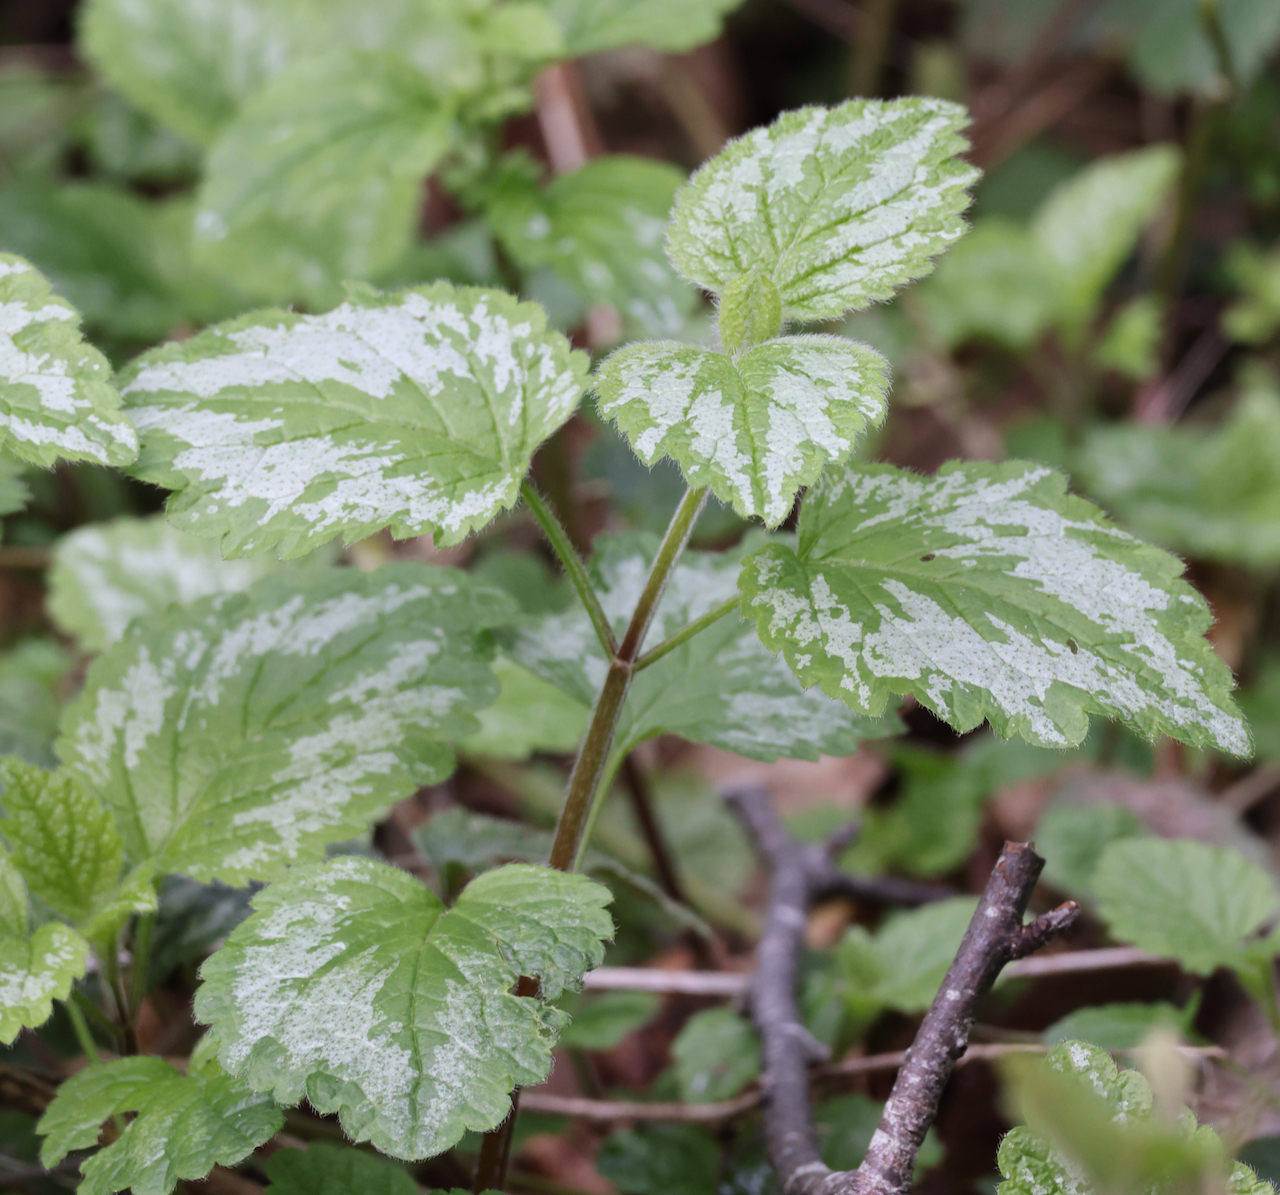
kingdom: Plantae
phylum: Tracheophyta
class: Magnoliopsida
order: Lamiales
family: Lamiaceae
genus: Lamium
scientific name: Lamium galeobdolon
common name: Yellow archangel
